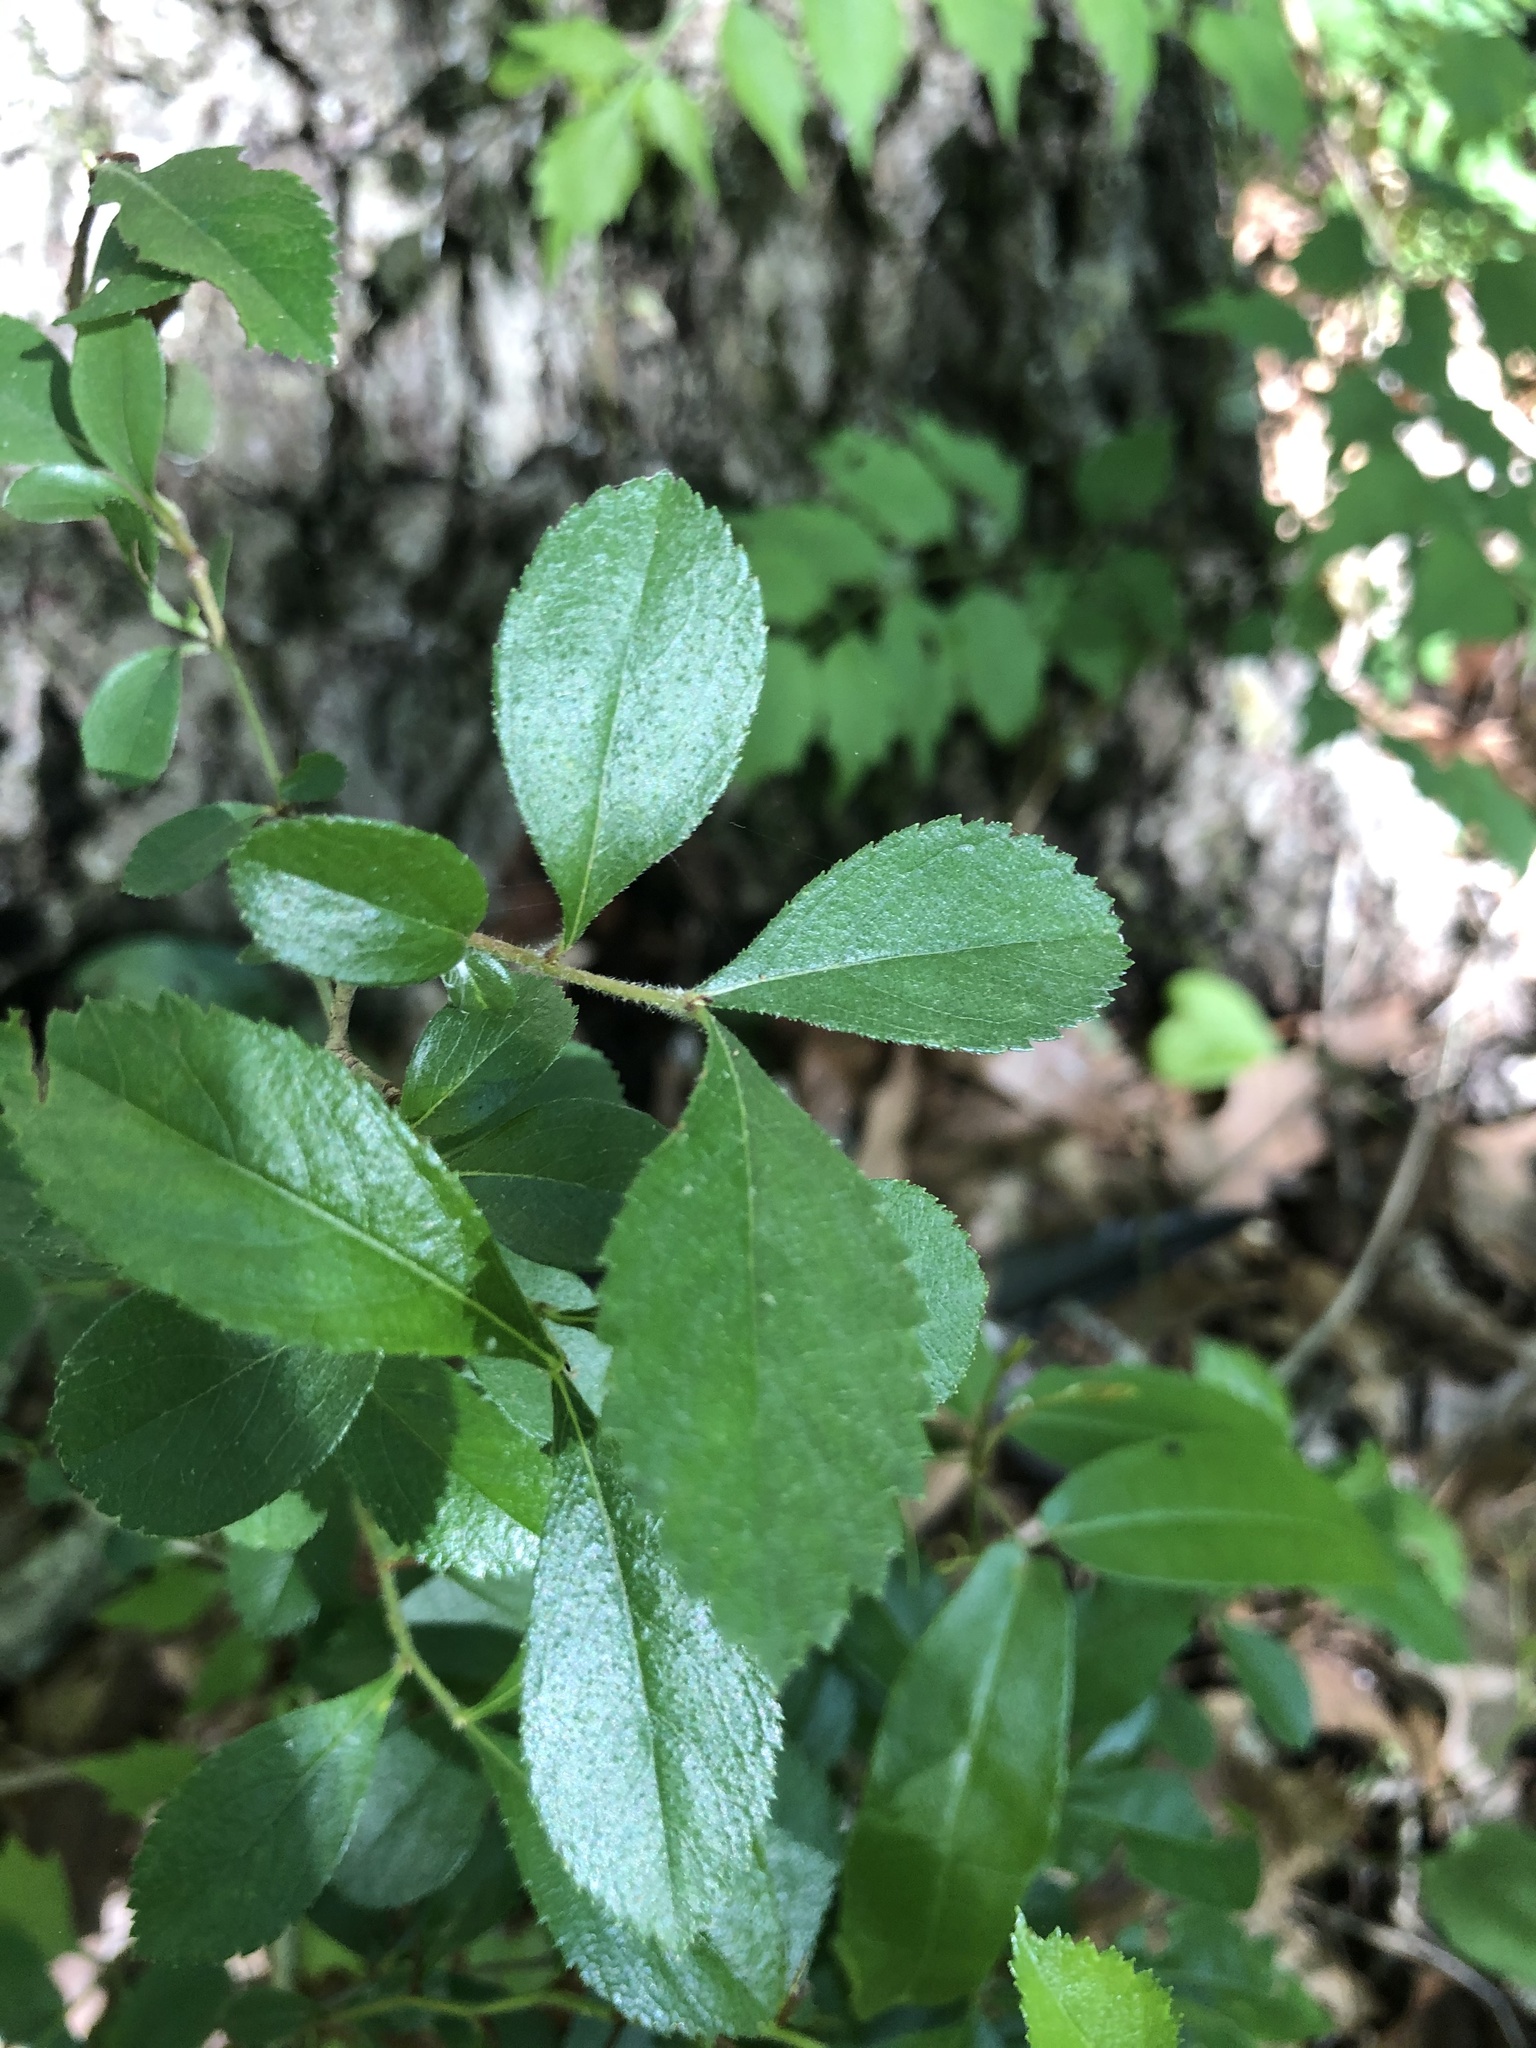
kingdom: Plantae
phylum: Tracheophyta
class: Magnoliopsida
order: Rosales
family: Rosaceae
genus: Crataegus
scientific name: Crataegus berberifolia
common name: Barberry hawthorn
